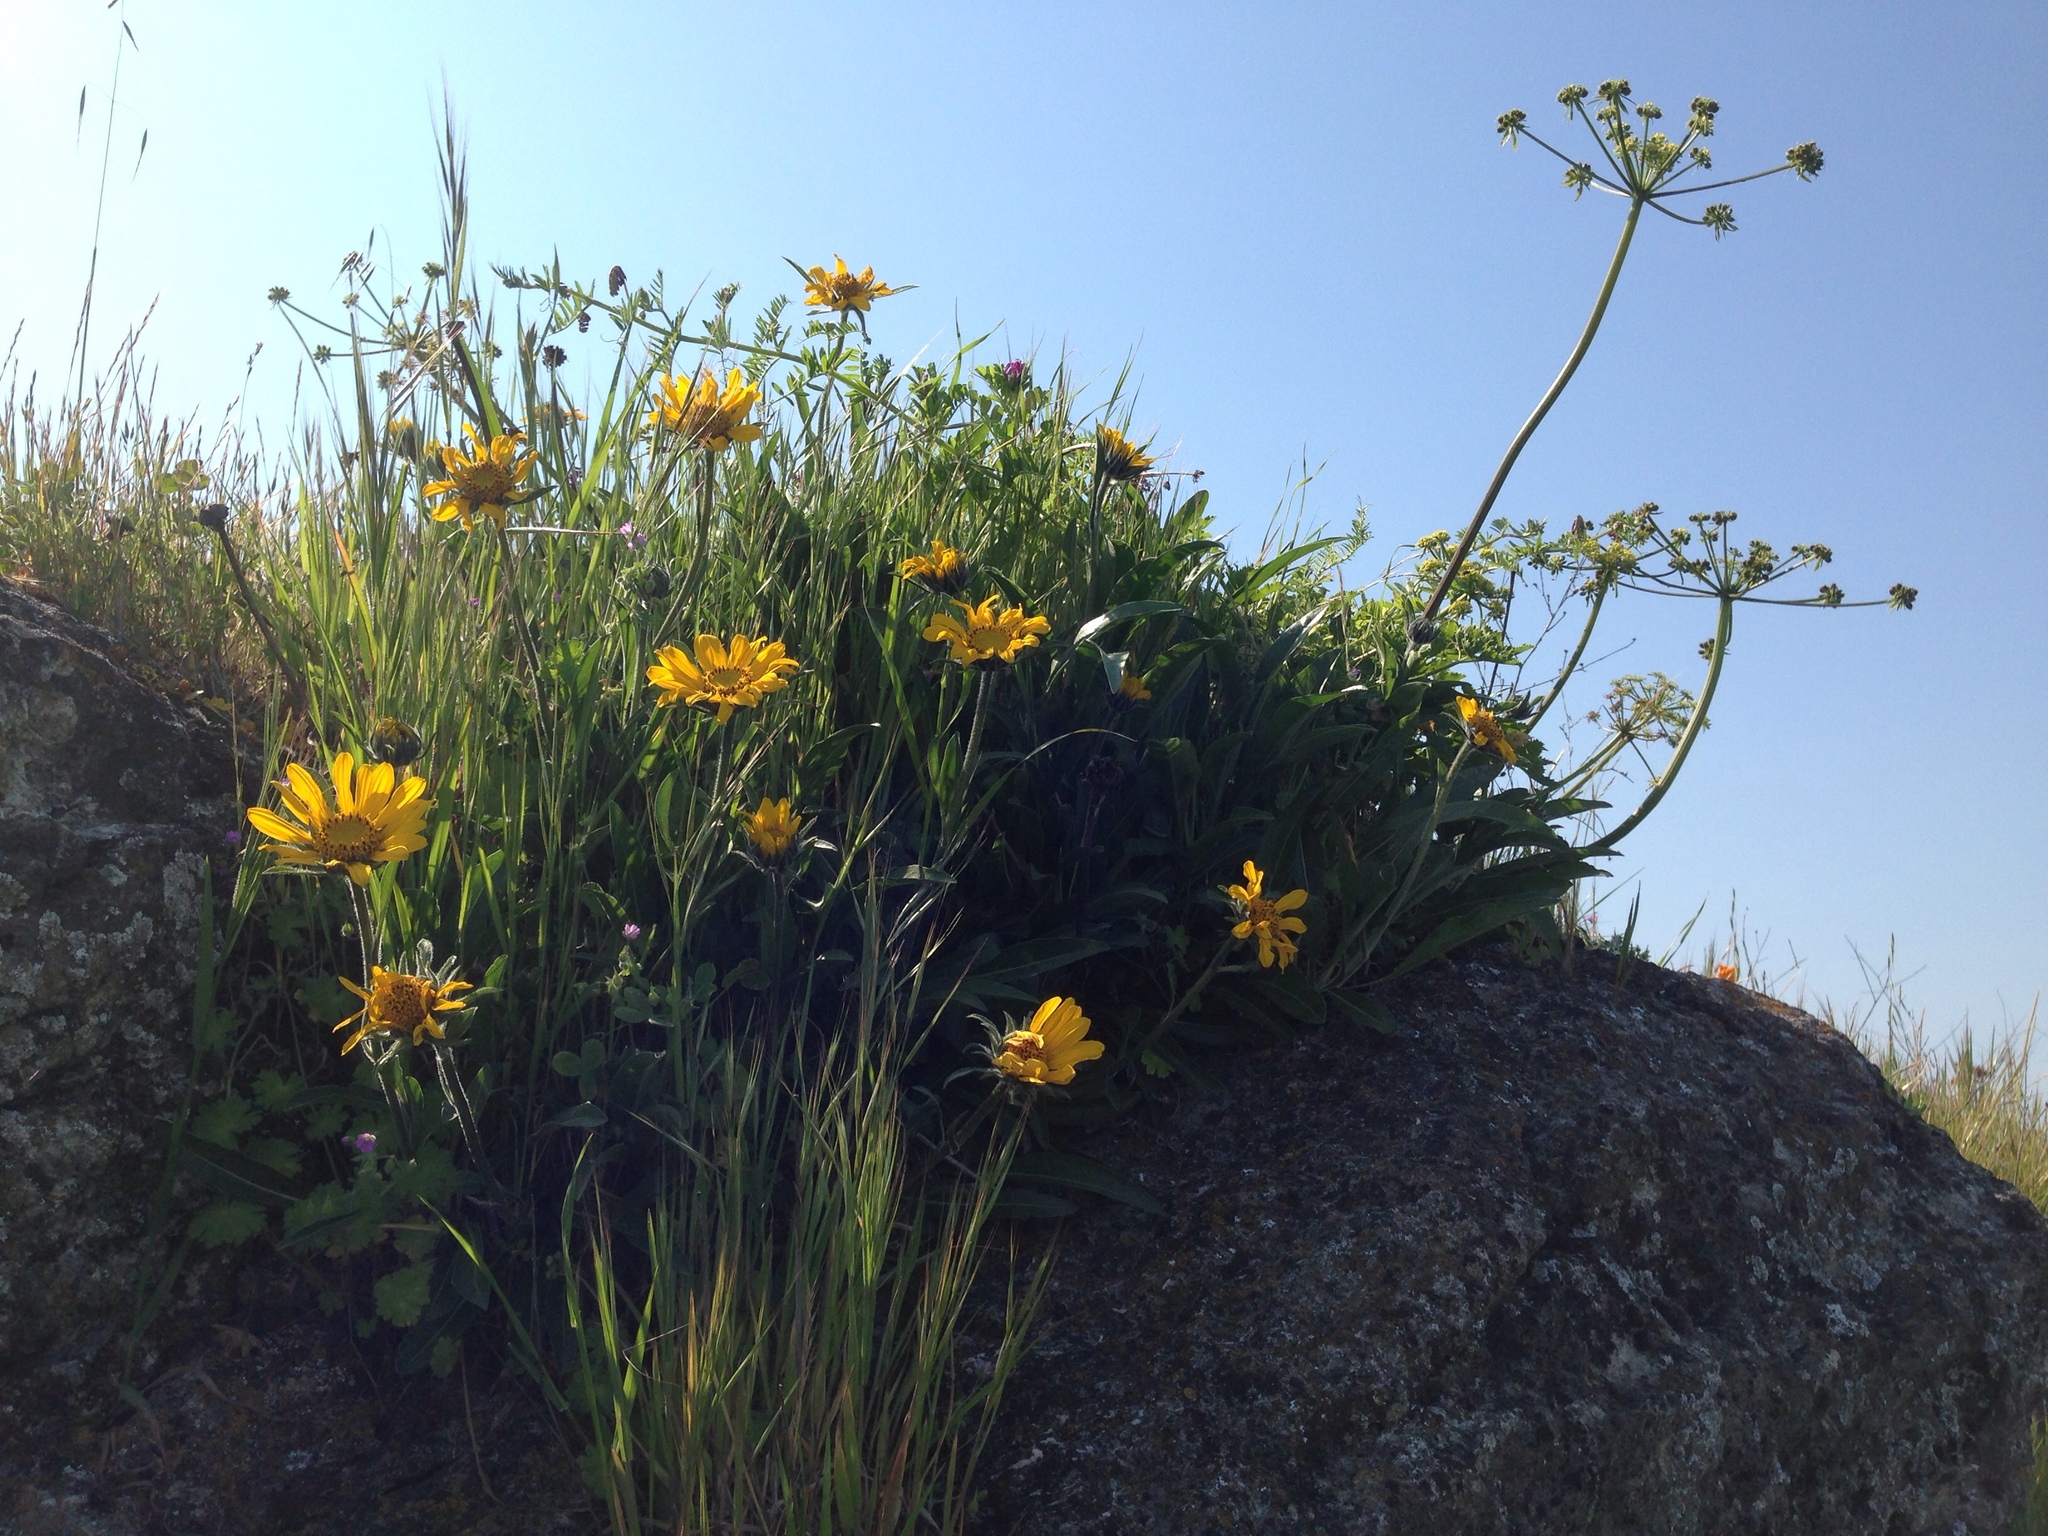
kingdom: Plantae
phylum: Tracheophyta
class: Magnoliopsida
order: Asterales
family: Asteraceae
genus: Wyethia
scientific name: Wyethia angustifolia
